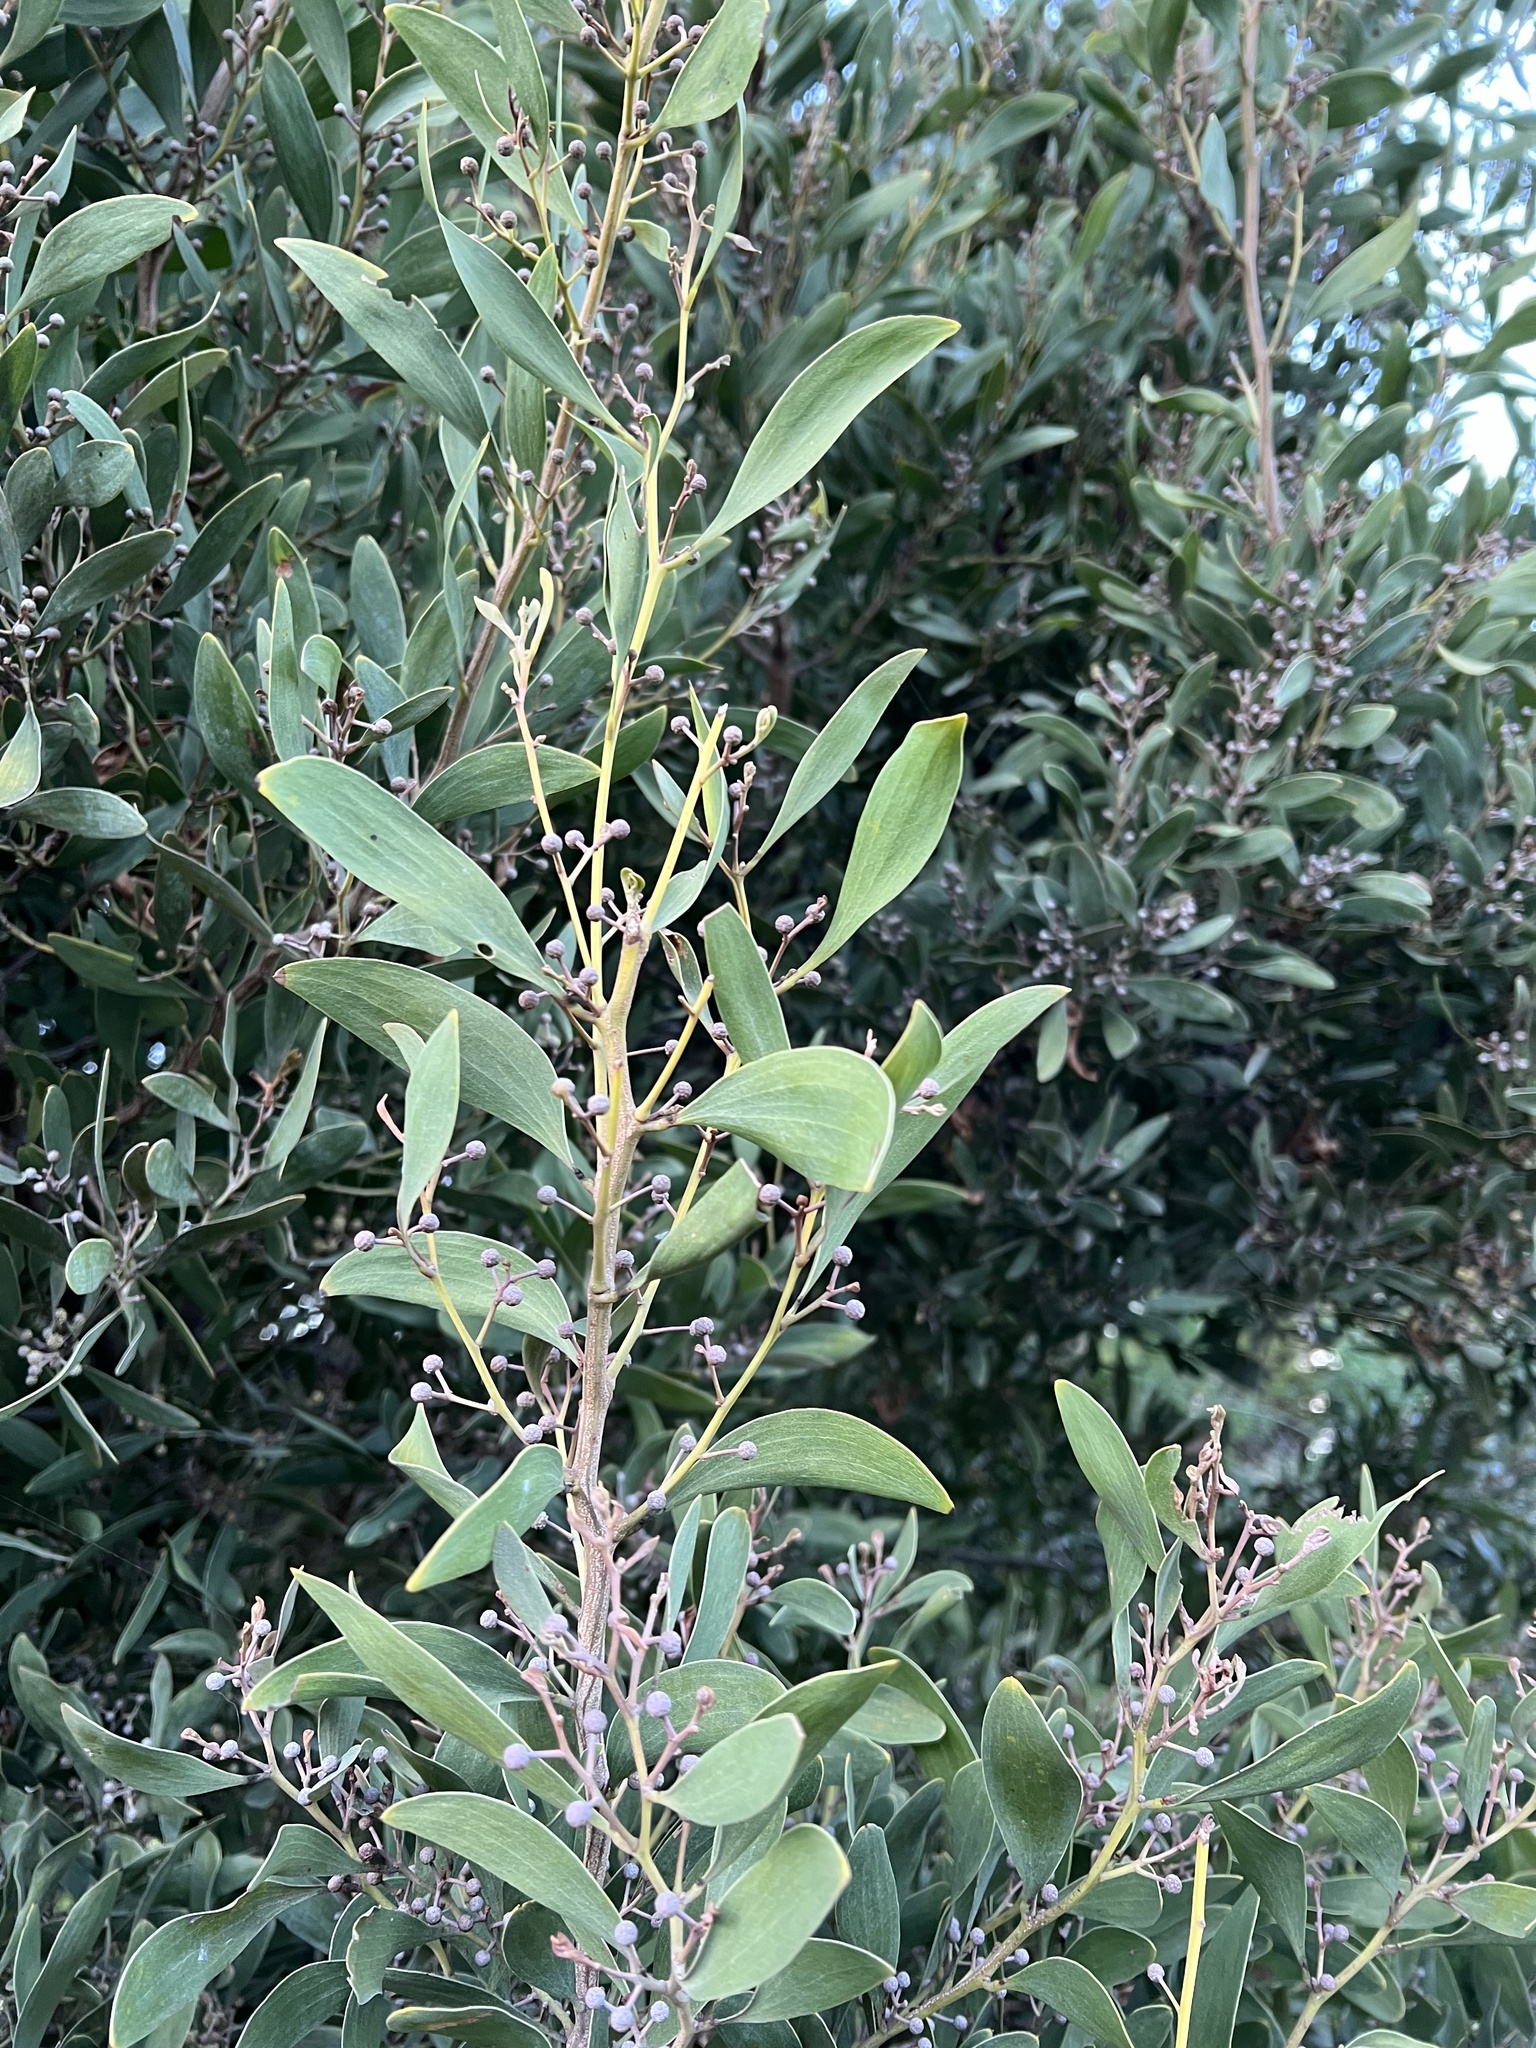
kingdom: Plantae
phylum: Tracheophyta
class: Magnoliopsida
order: Fabales
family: Fabaceae
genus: Acacia
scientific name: Acacia melanoxylon
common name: Blackwood
